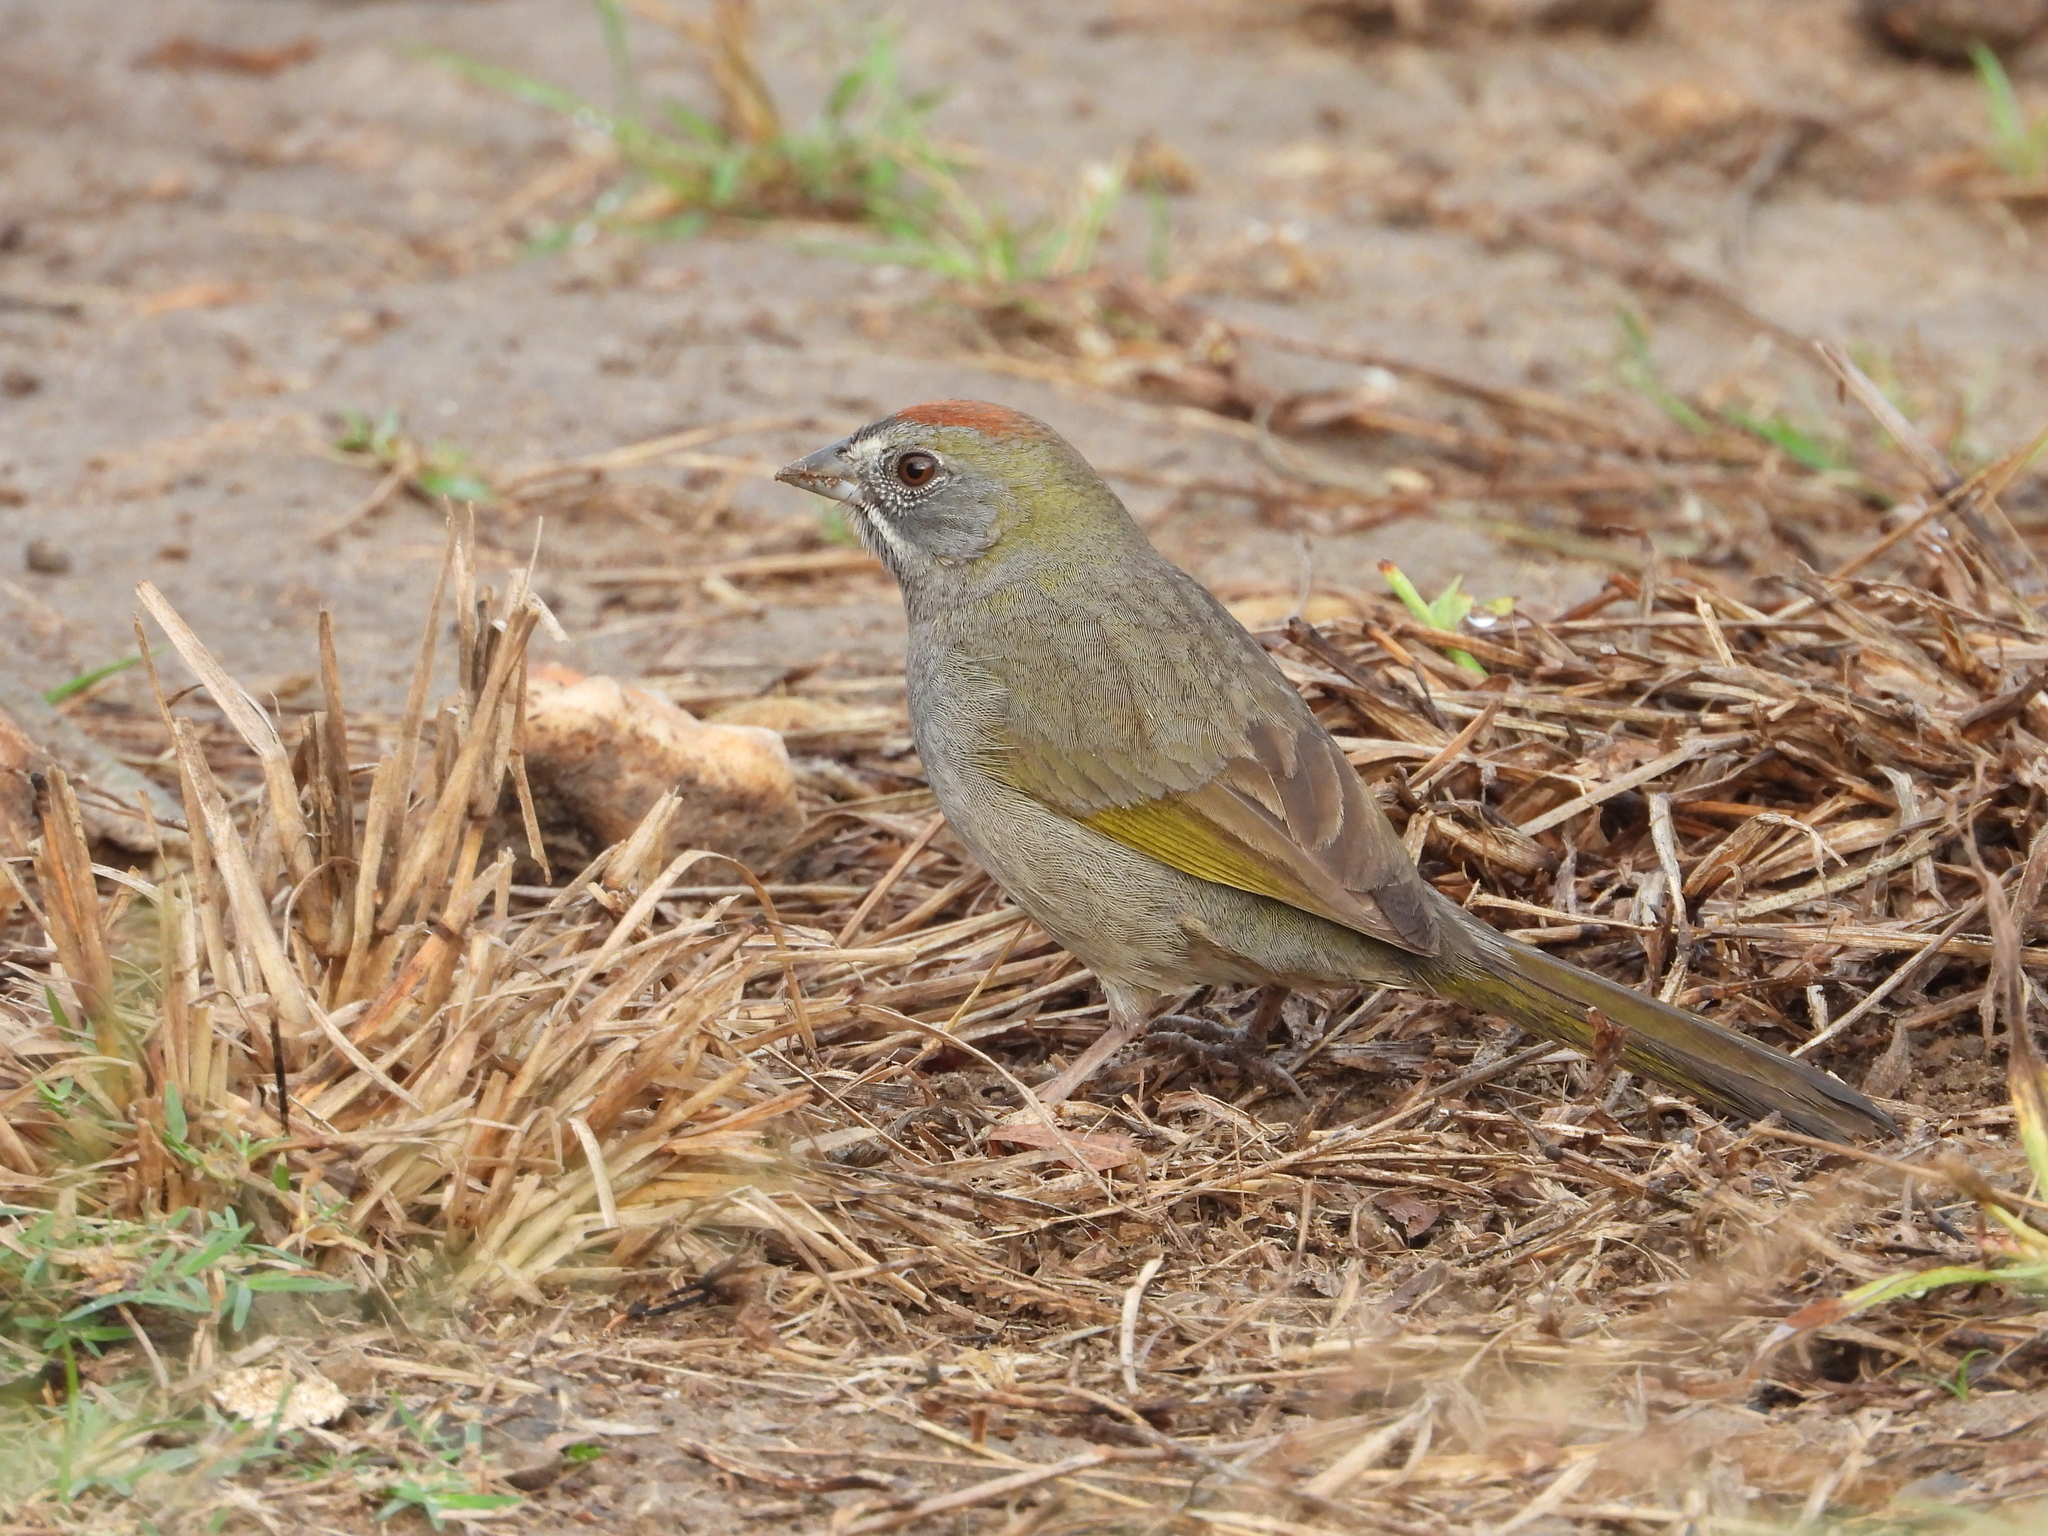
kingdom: Animalia
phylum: Chordata
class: Aves
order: Passeriformes
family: Passerellidae
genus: Pipilo
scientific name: Pipilo chlorurus
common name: Green-tailed towhee
